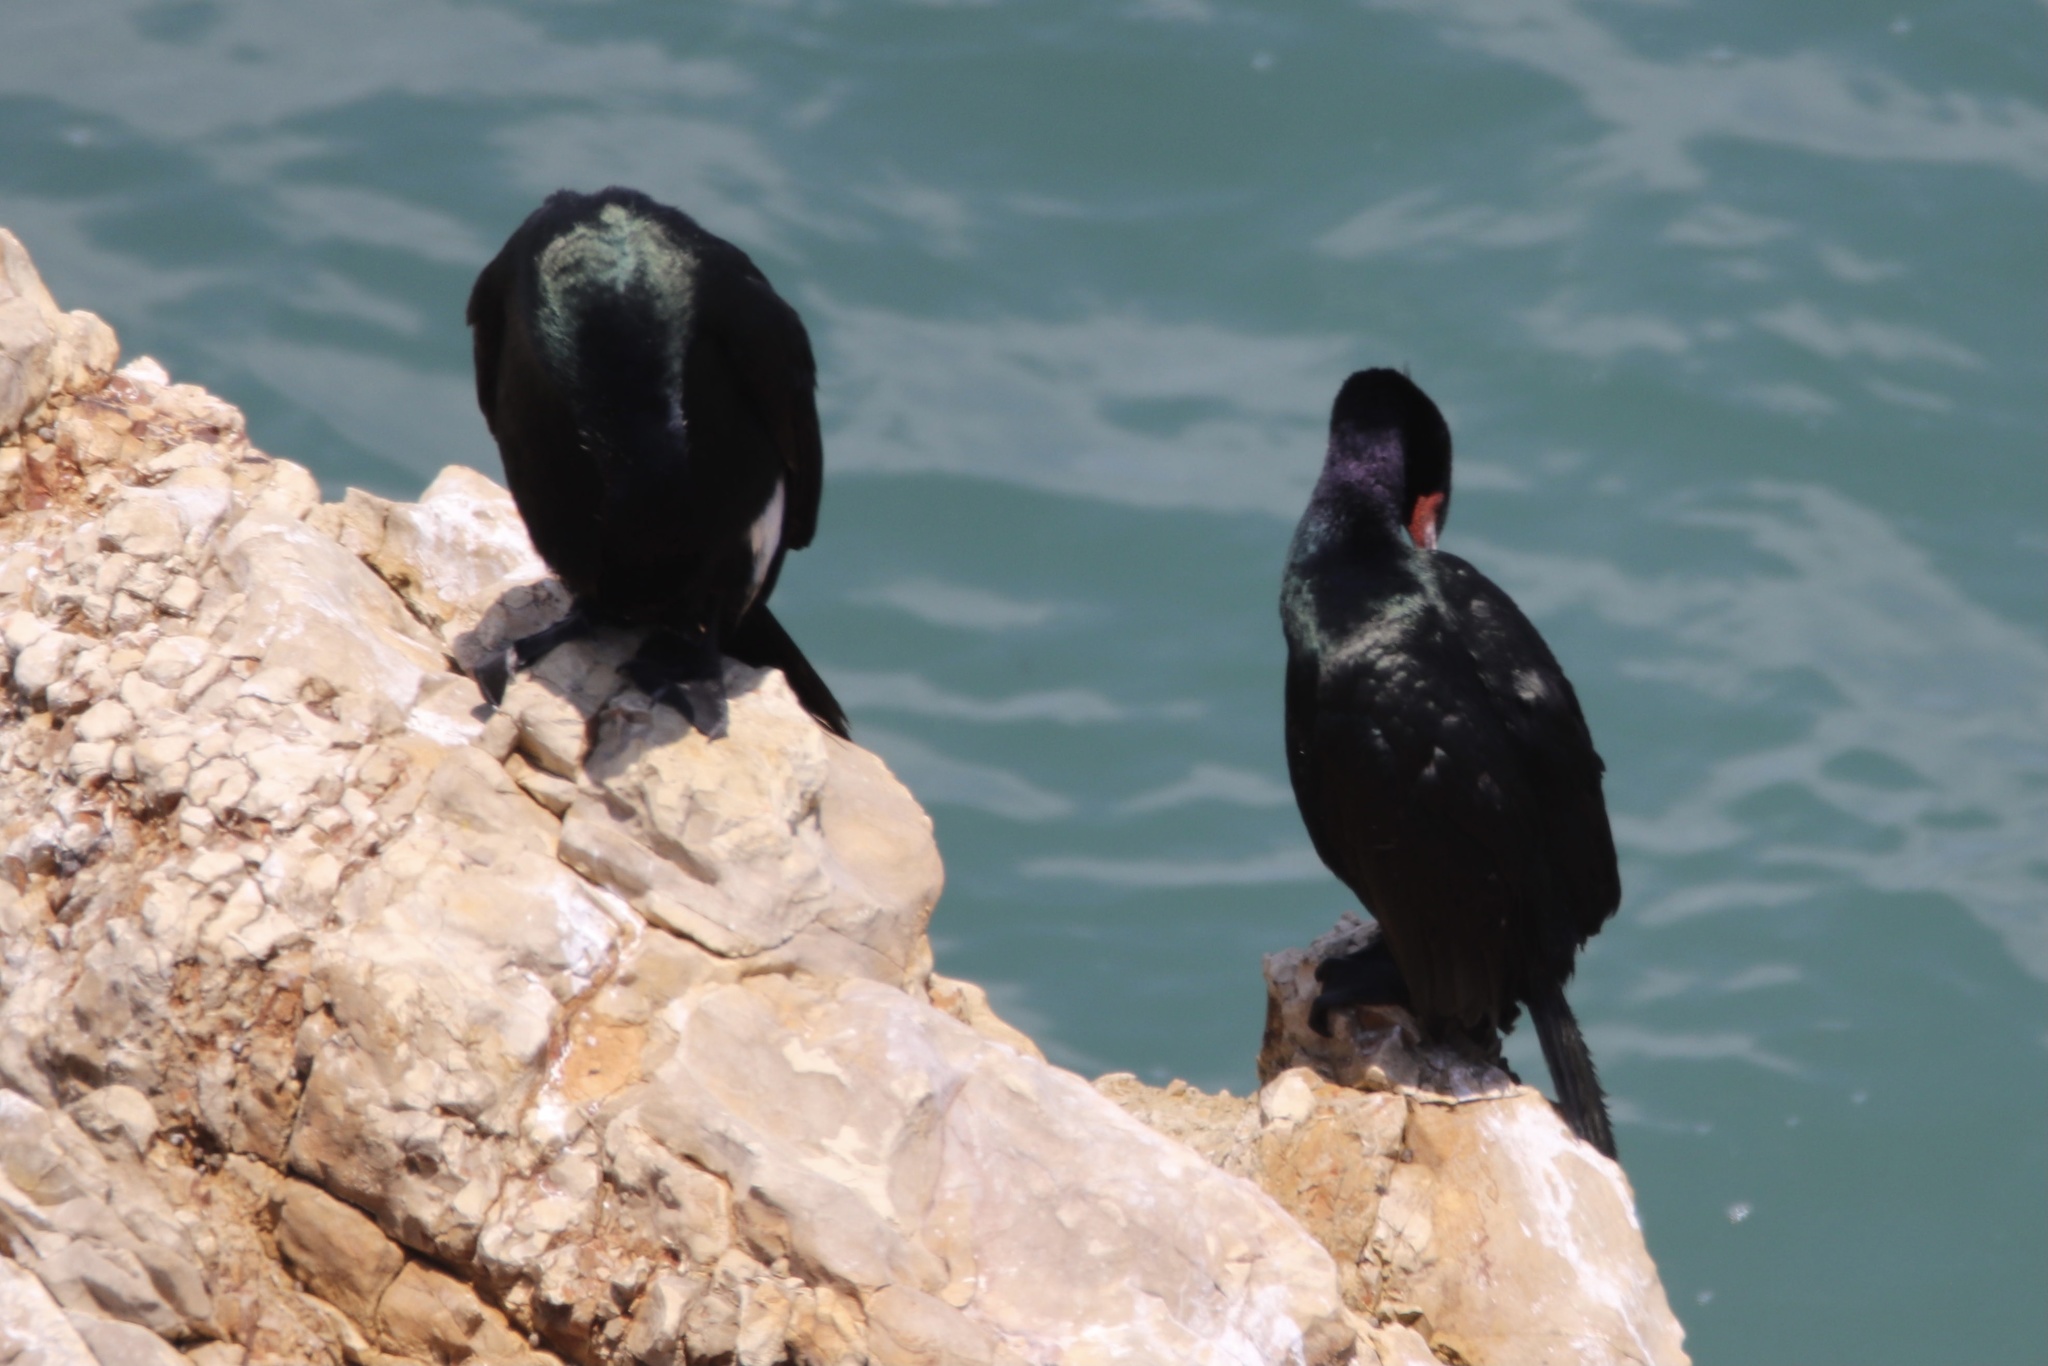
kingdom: Animalia
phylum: Chordata
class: Aves
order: Suliformes
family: Phalacrocoracidae
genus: Phalacrocorax
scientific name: Phalacrocorax pelagicus
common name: Pelagic cormorant
